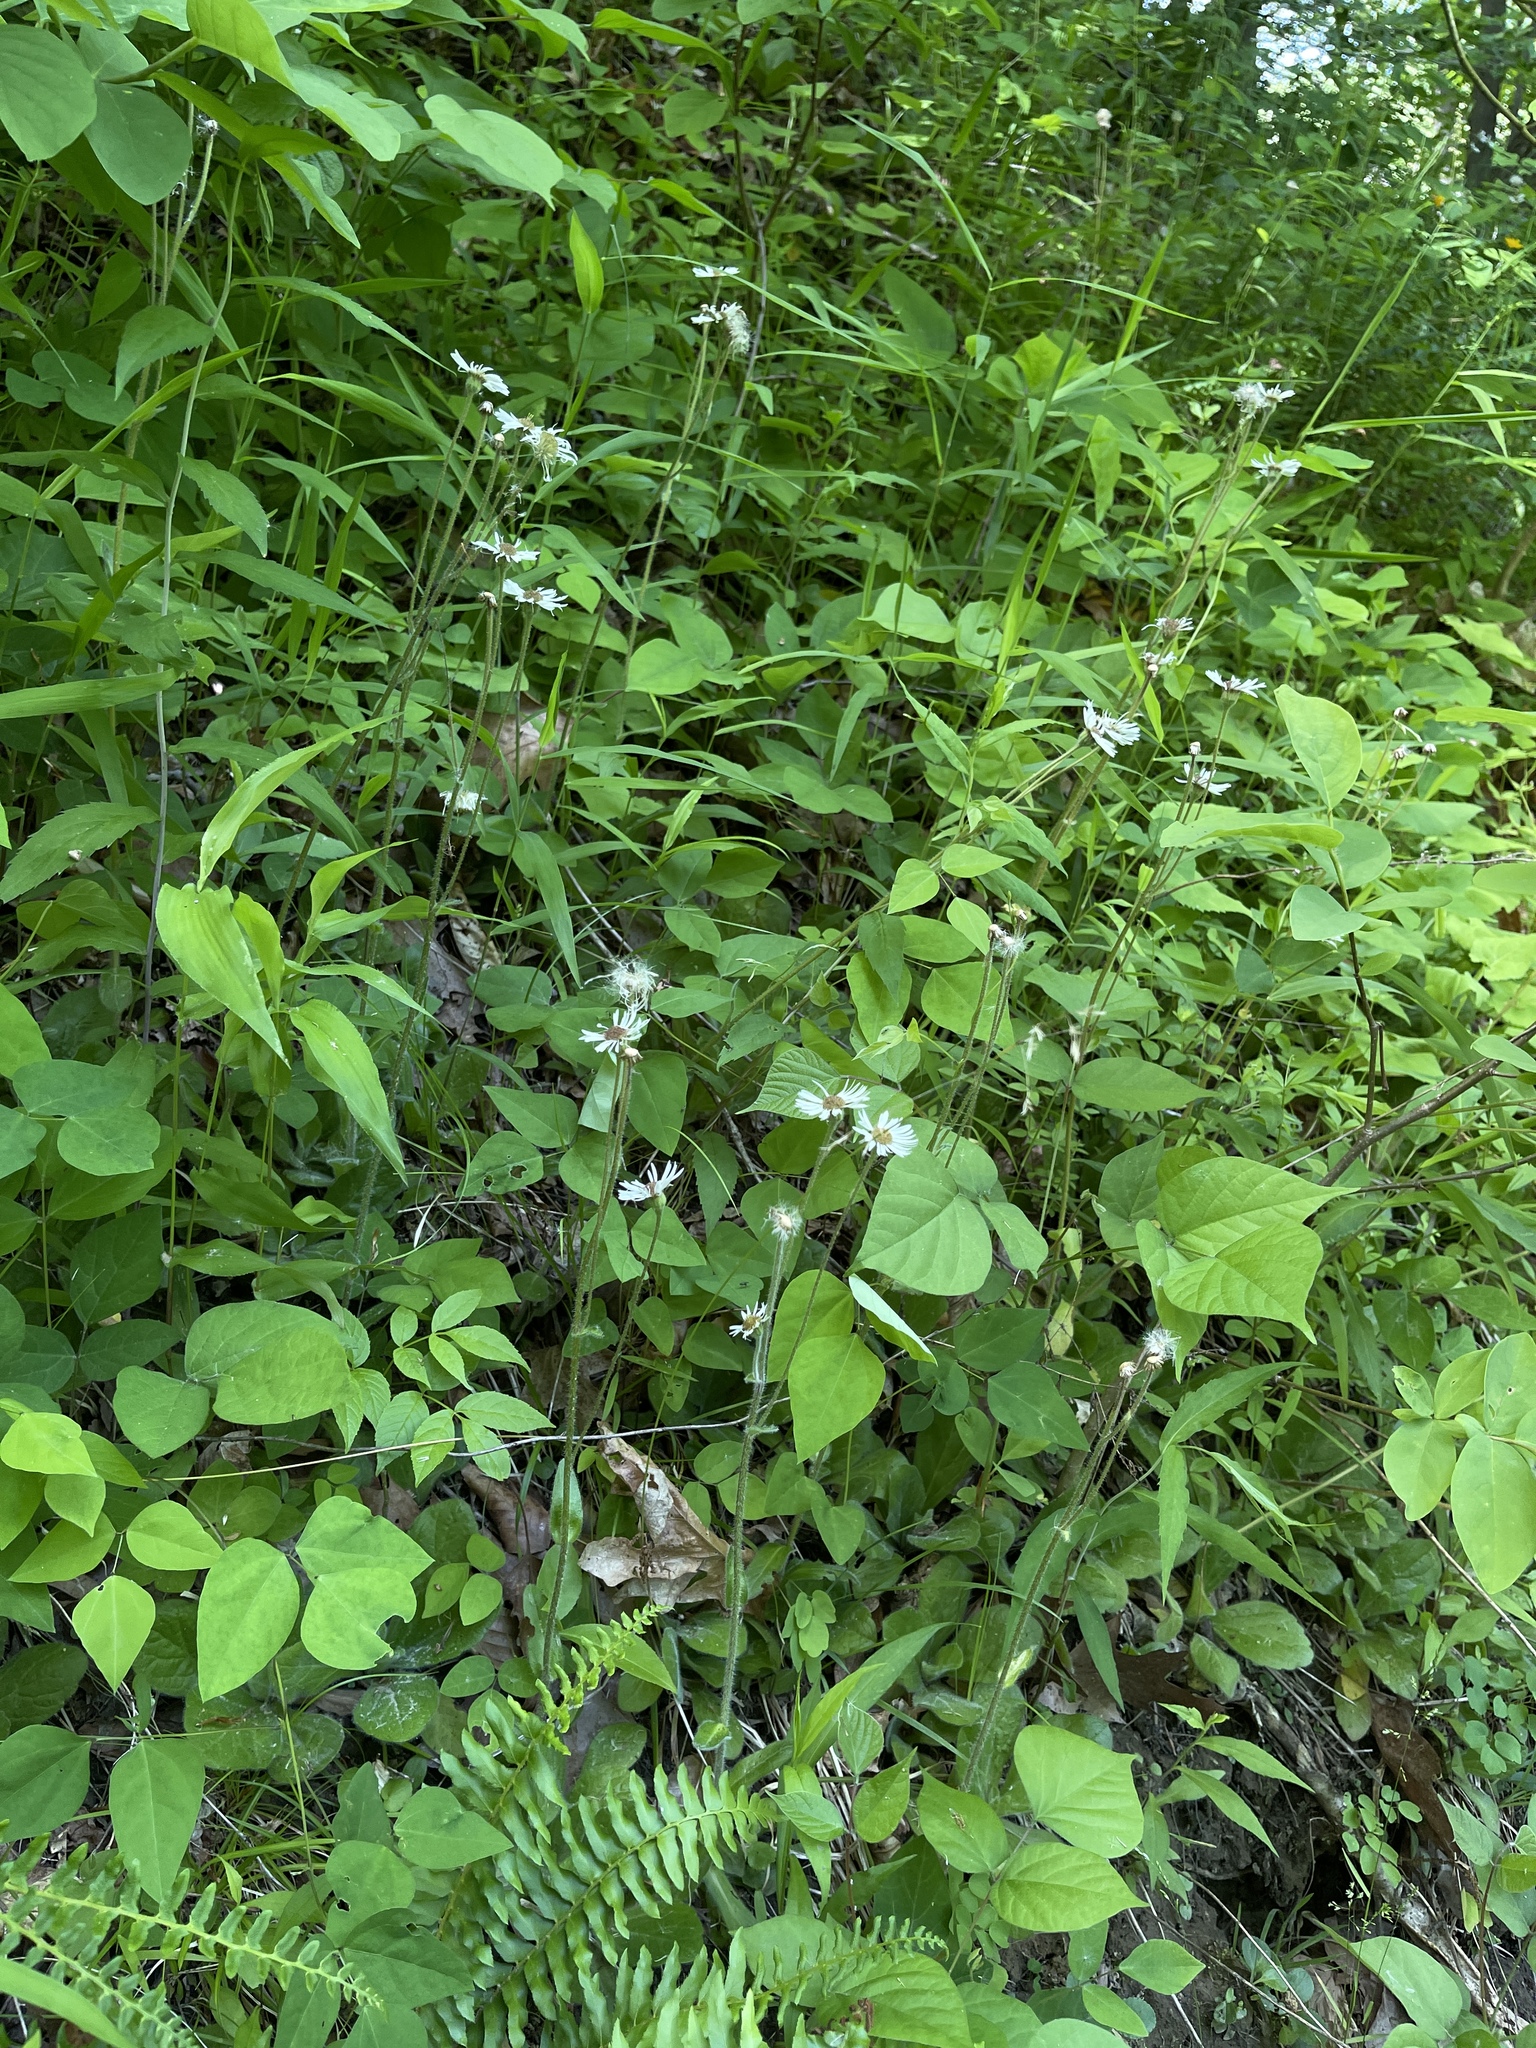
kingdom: Plantae
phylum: Tracheophyta
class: Magnoliopsida
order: Asterales
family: Asteraceae
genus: Erigeron
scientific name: Erigeron pulchellus
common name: Hairy fleabane
